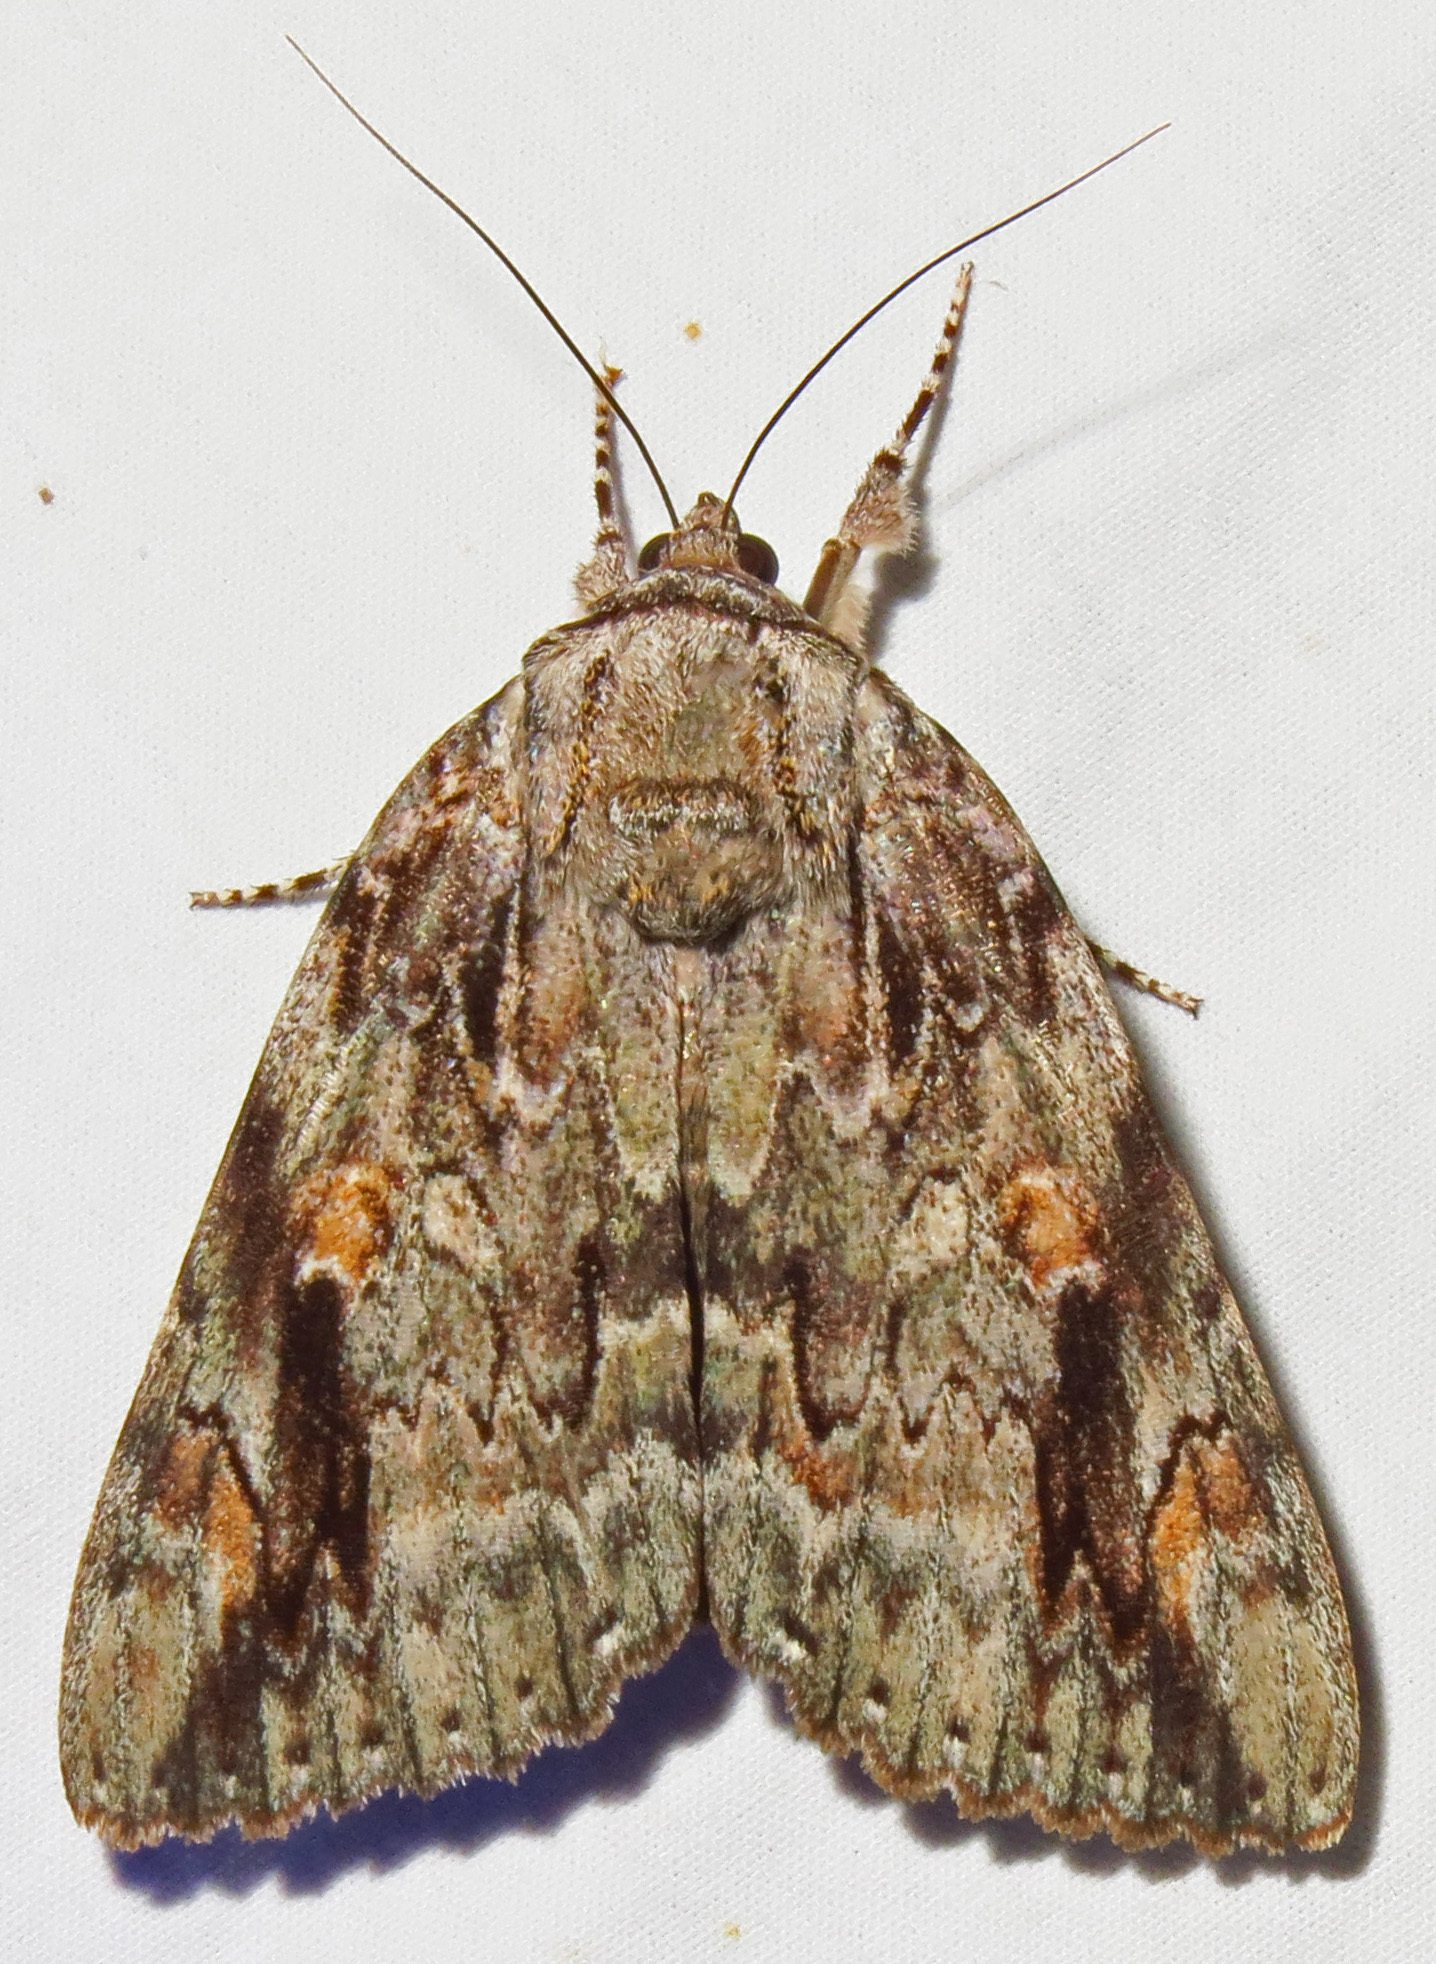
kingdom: Animalia
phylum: Arthropoda
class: Insecta
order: Lepidoptera
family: Erebidae
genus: Catocala
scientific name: Catocala maestosa
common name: Sad underwing
